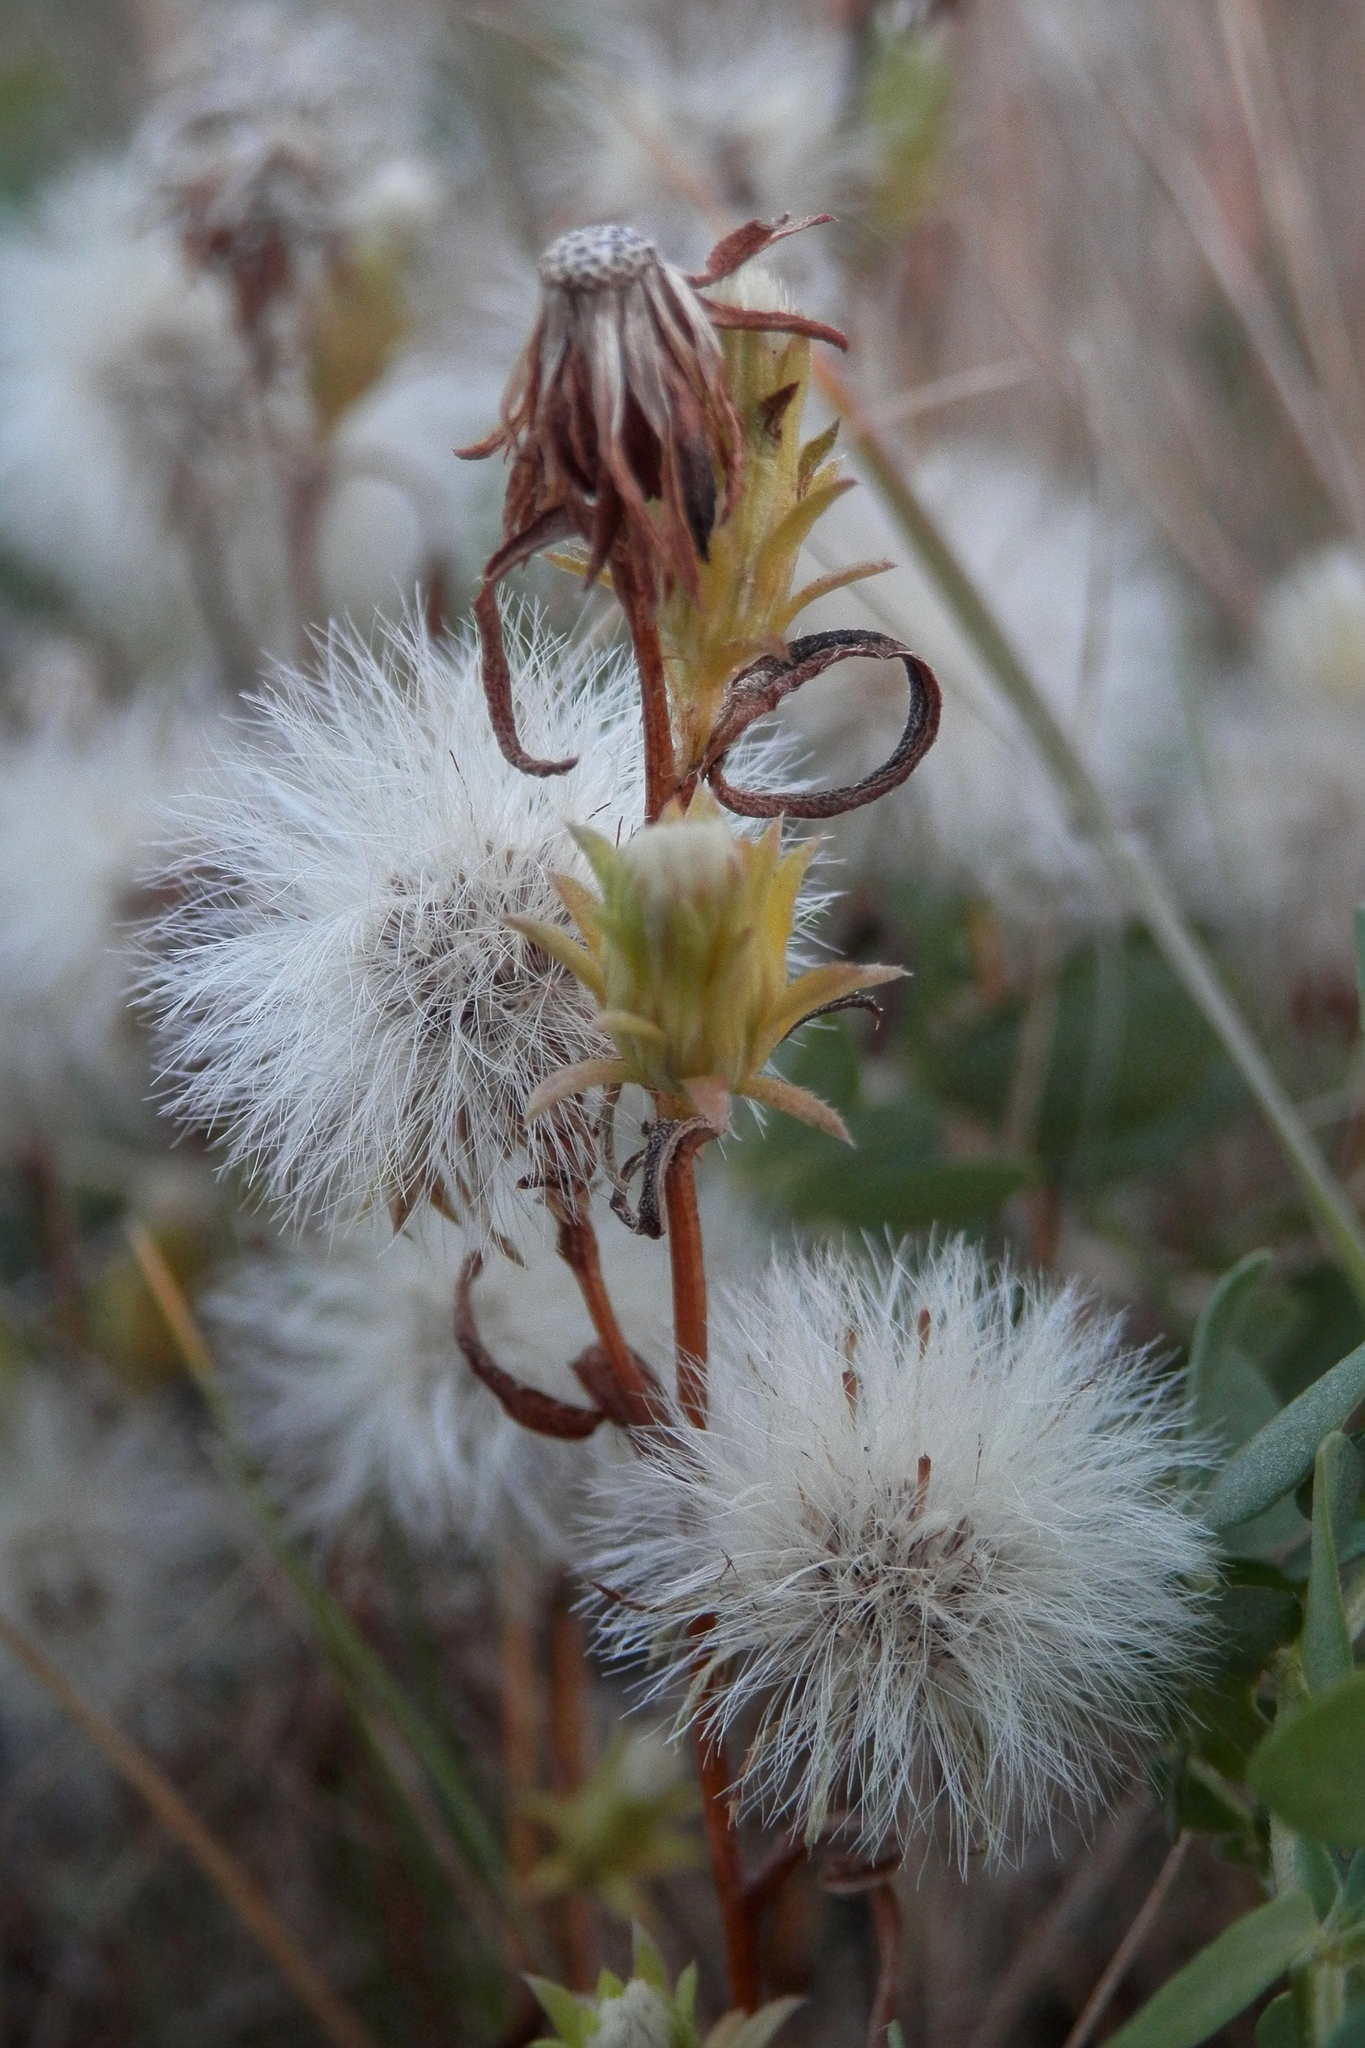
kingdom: Plantae
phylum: Tracheophyta
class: Magnoliopsida
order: Asterales
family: Asteraceae
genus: Symphyotrichum
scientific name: Symphyotrichum ciliatum
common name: Rayless annual aster
